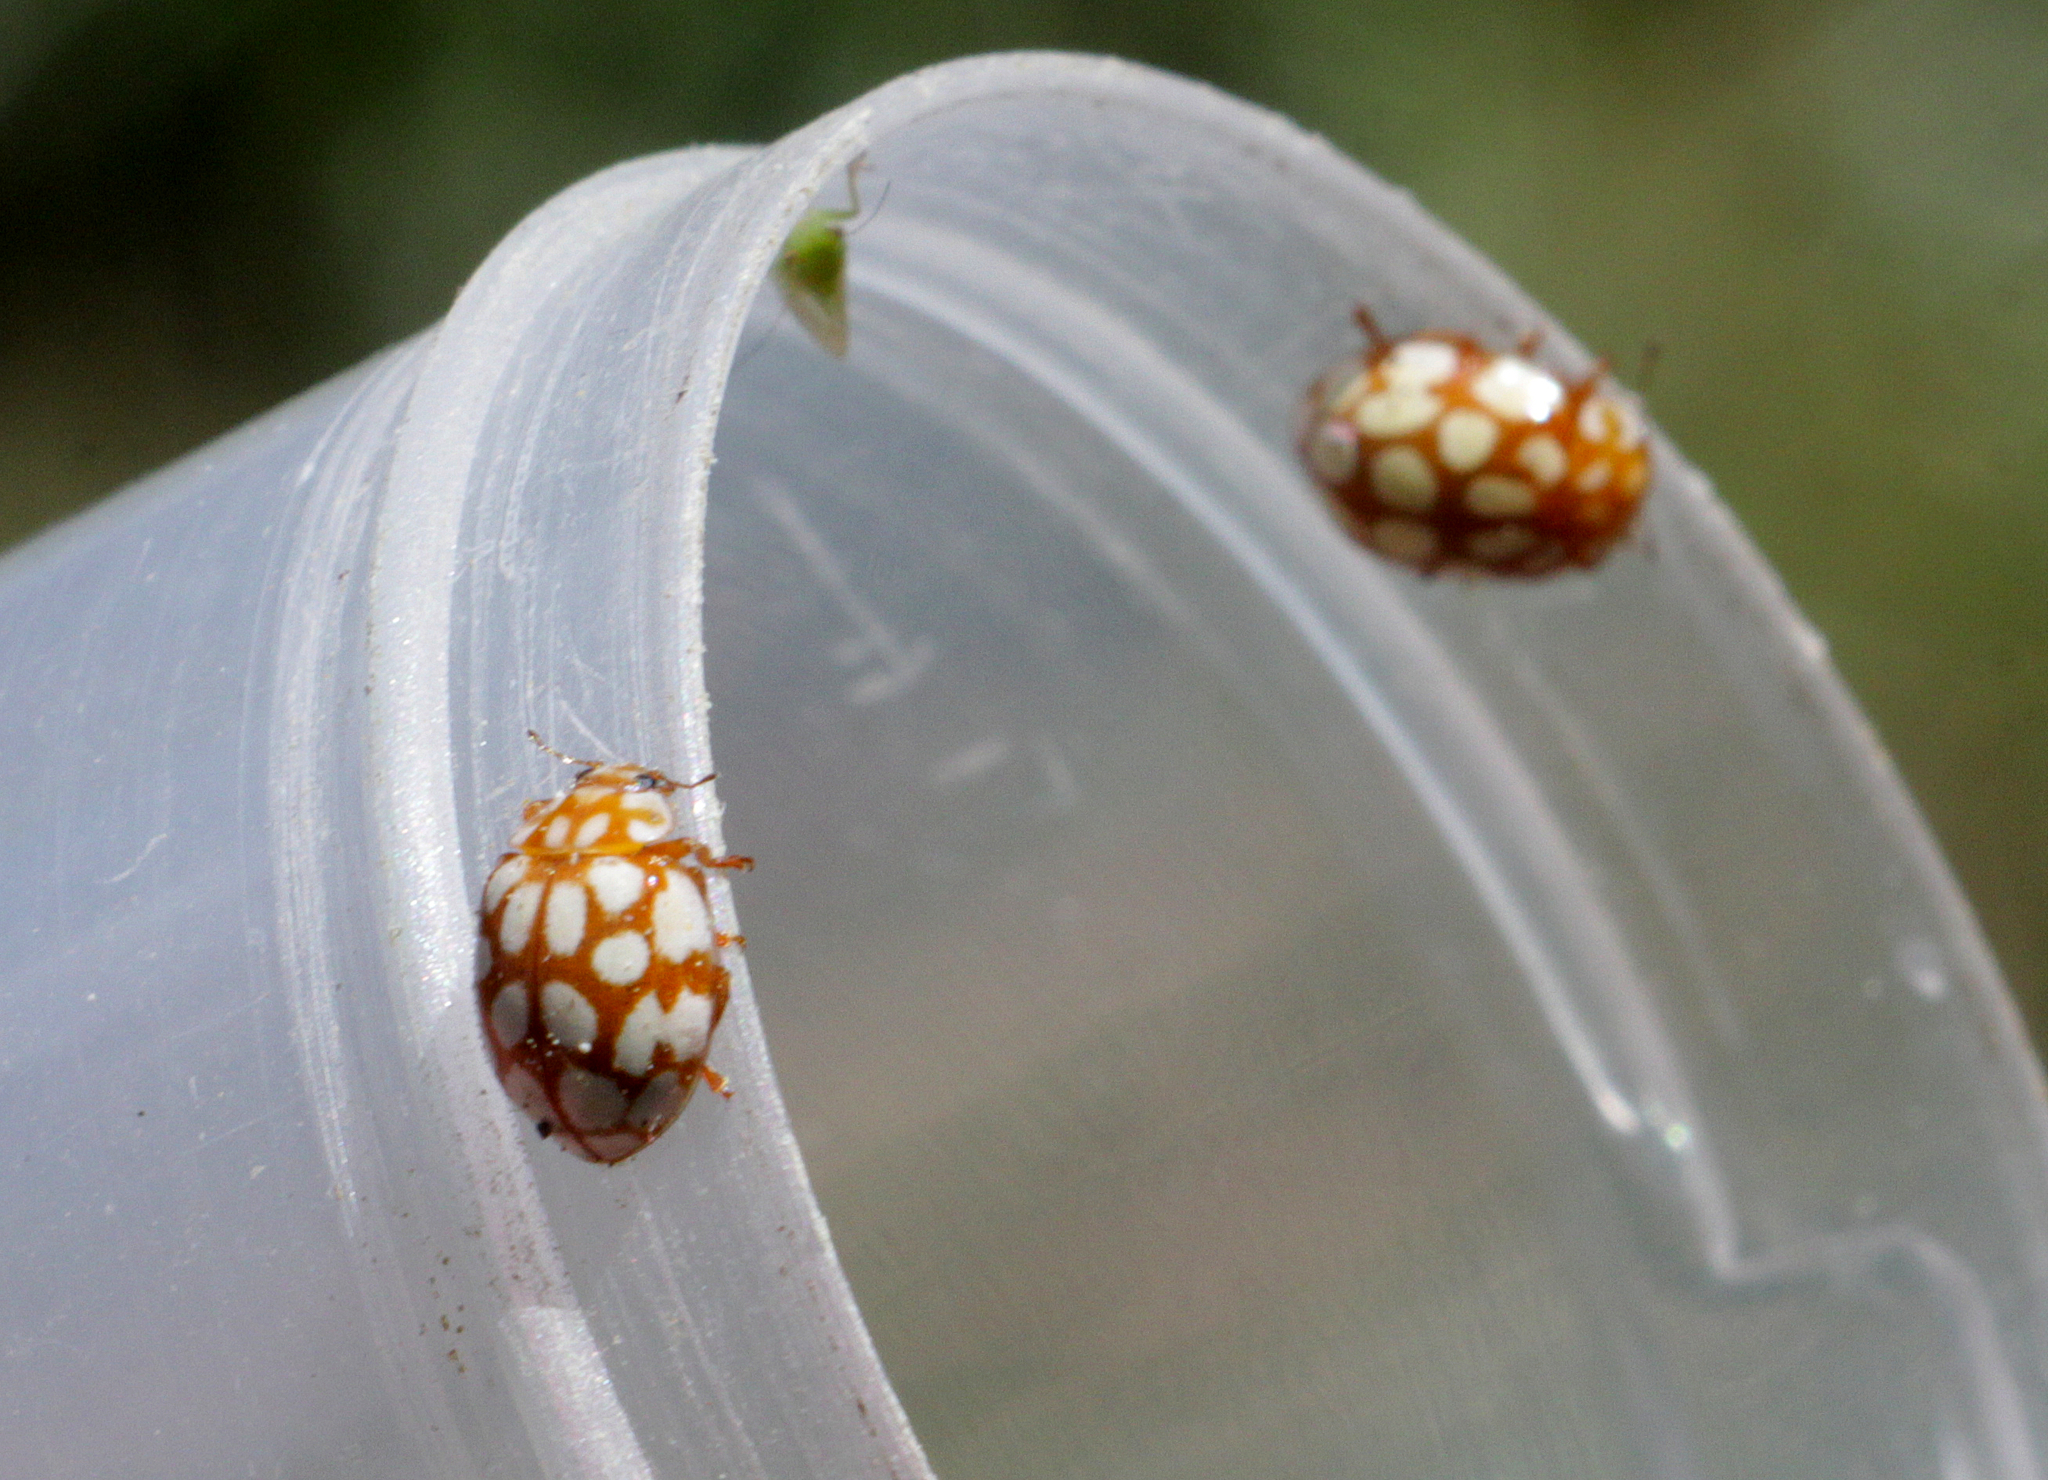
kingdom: Animalia
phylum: Arthropoda
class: Insecta
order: Coleoptera
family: Coccinellidae
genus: Sospita
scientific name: Sospita vigintiguttata
